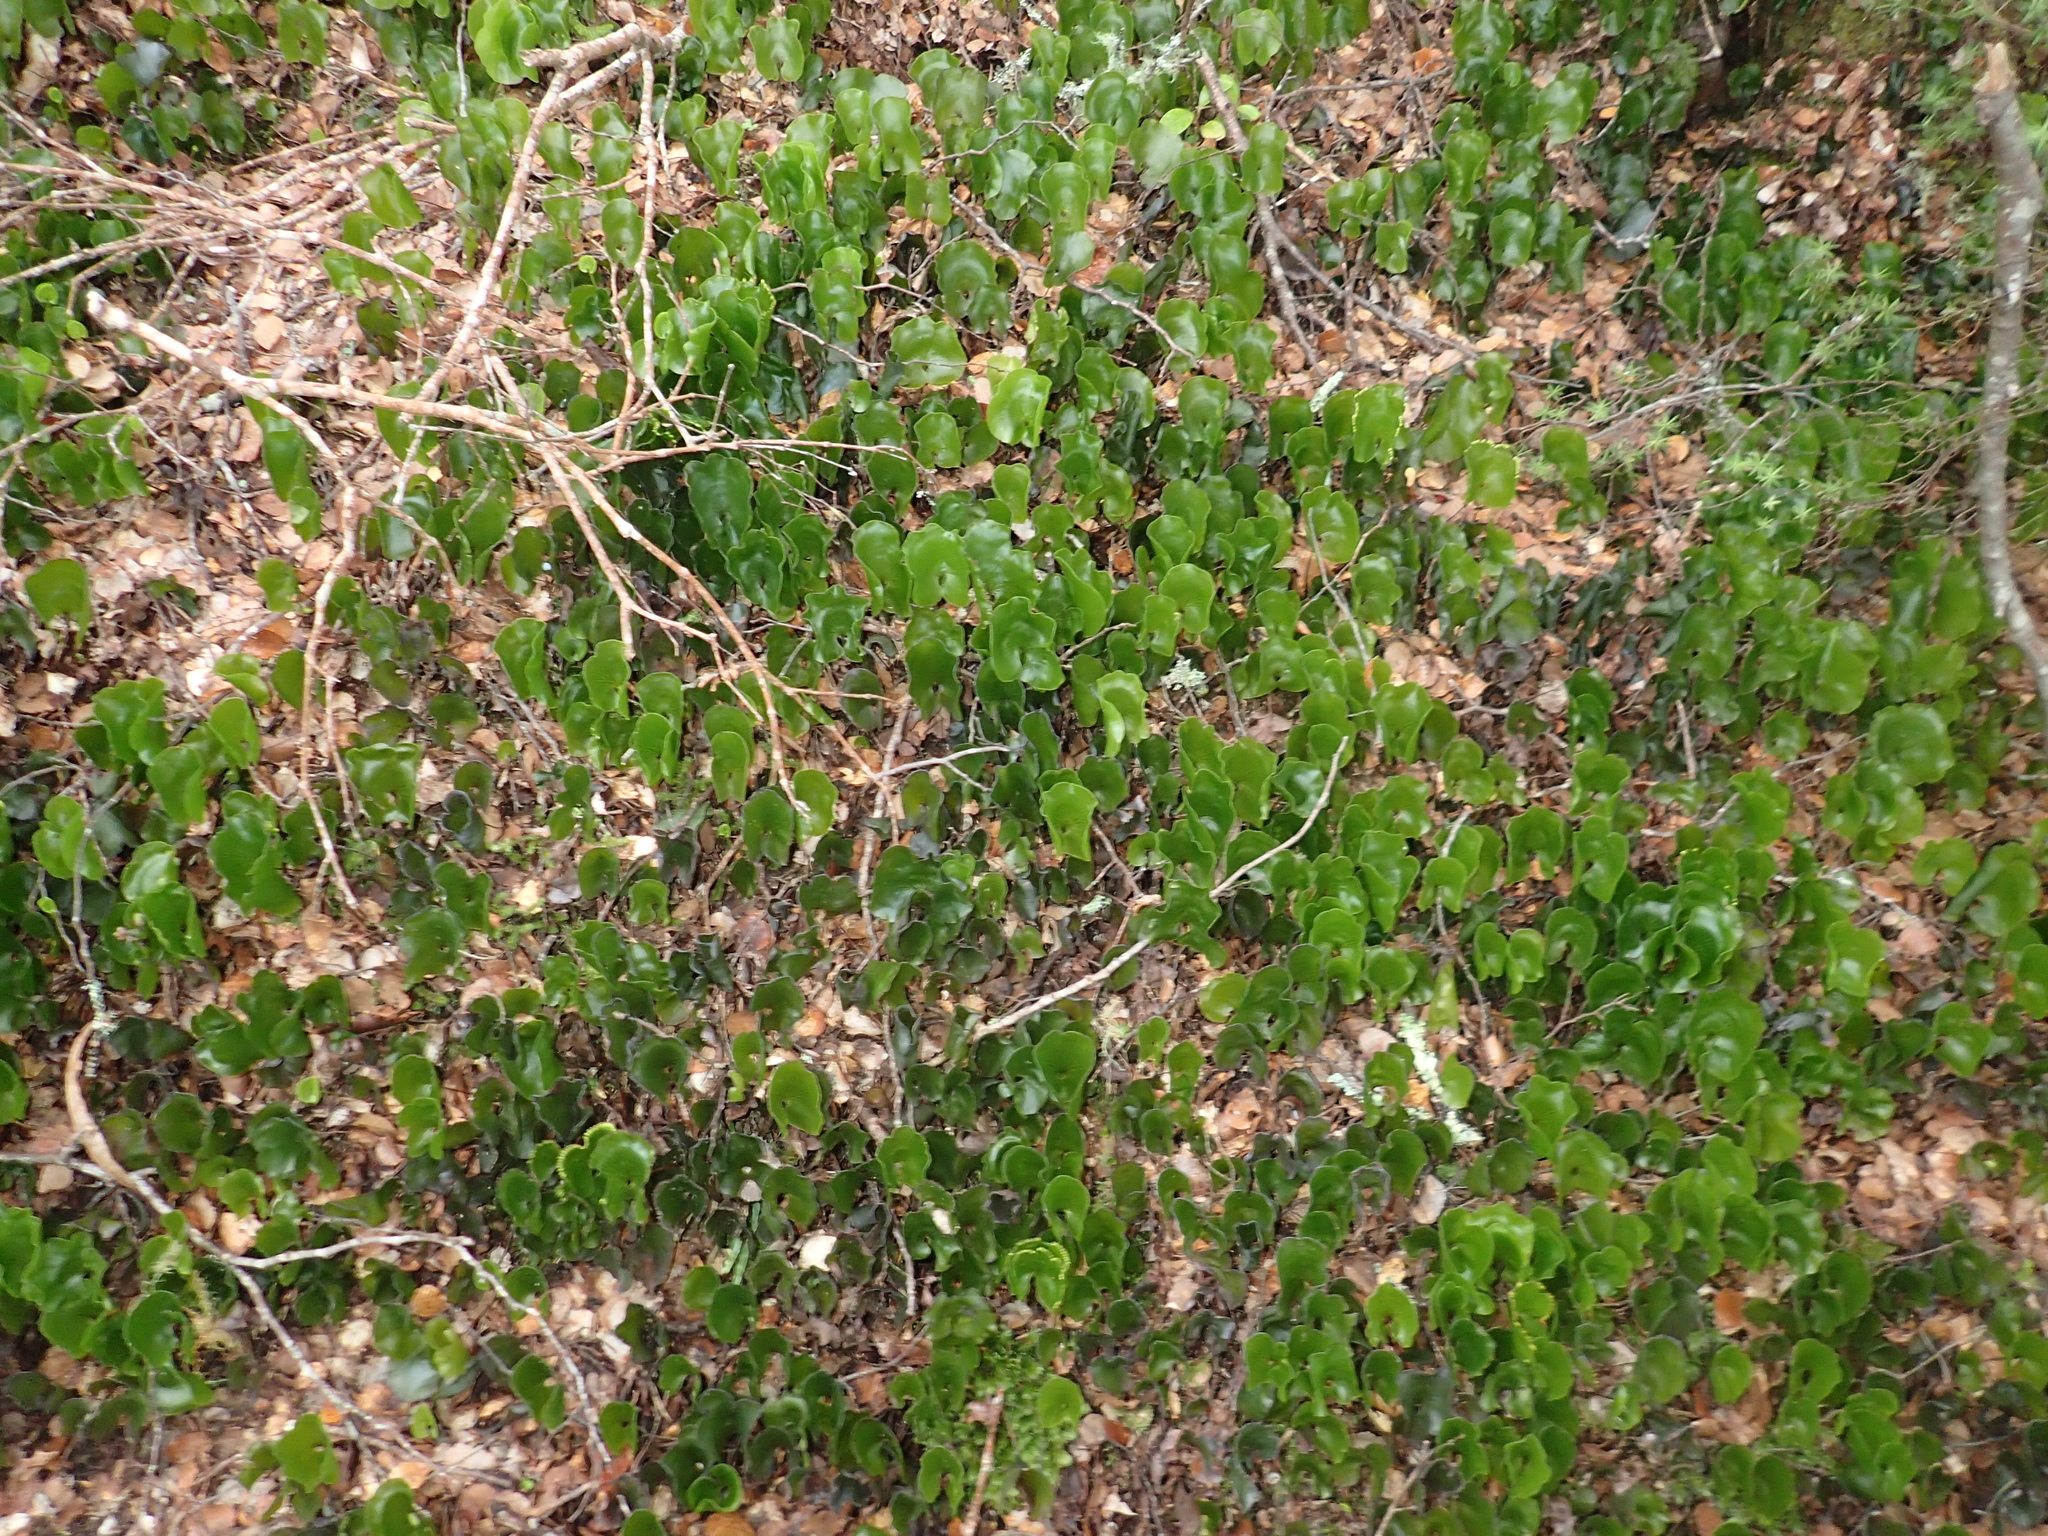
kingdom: Plantae
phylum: Tracheophyta
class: Polypodiopsida
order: Hymenophyllales
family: Hymenophyllaceae
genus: Hymenophyllum
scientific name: Hymenophyllum nephrophyllum
